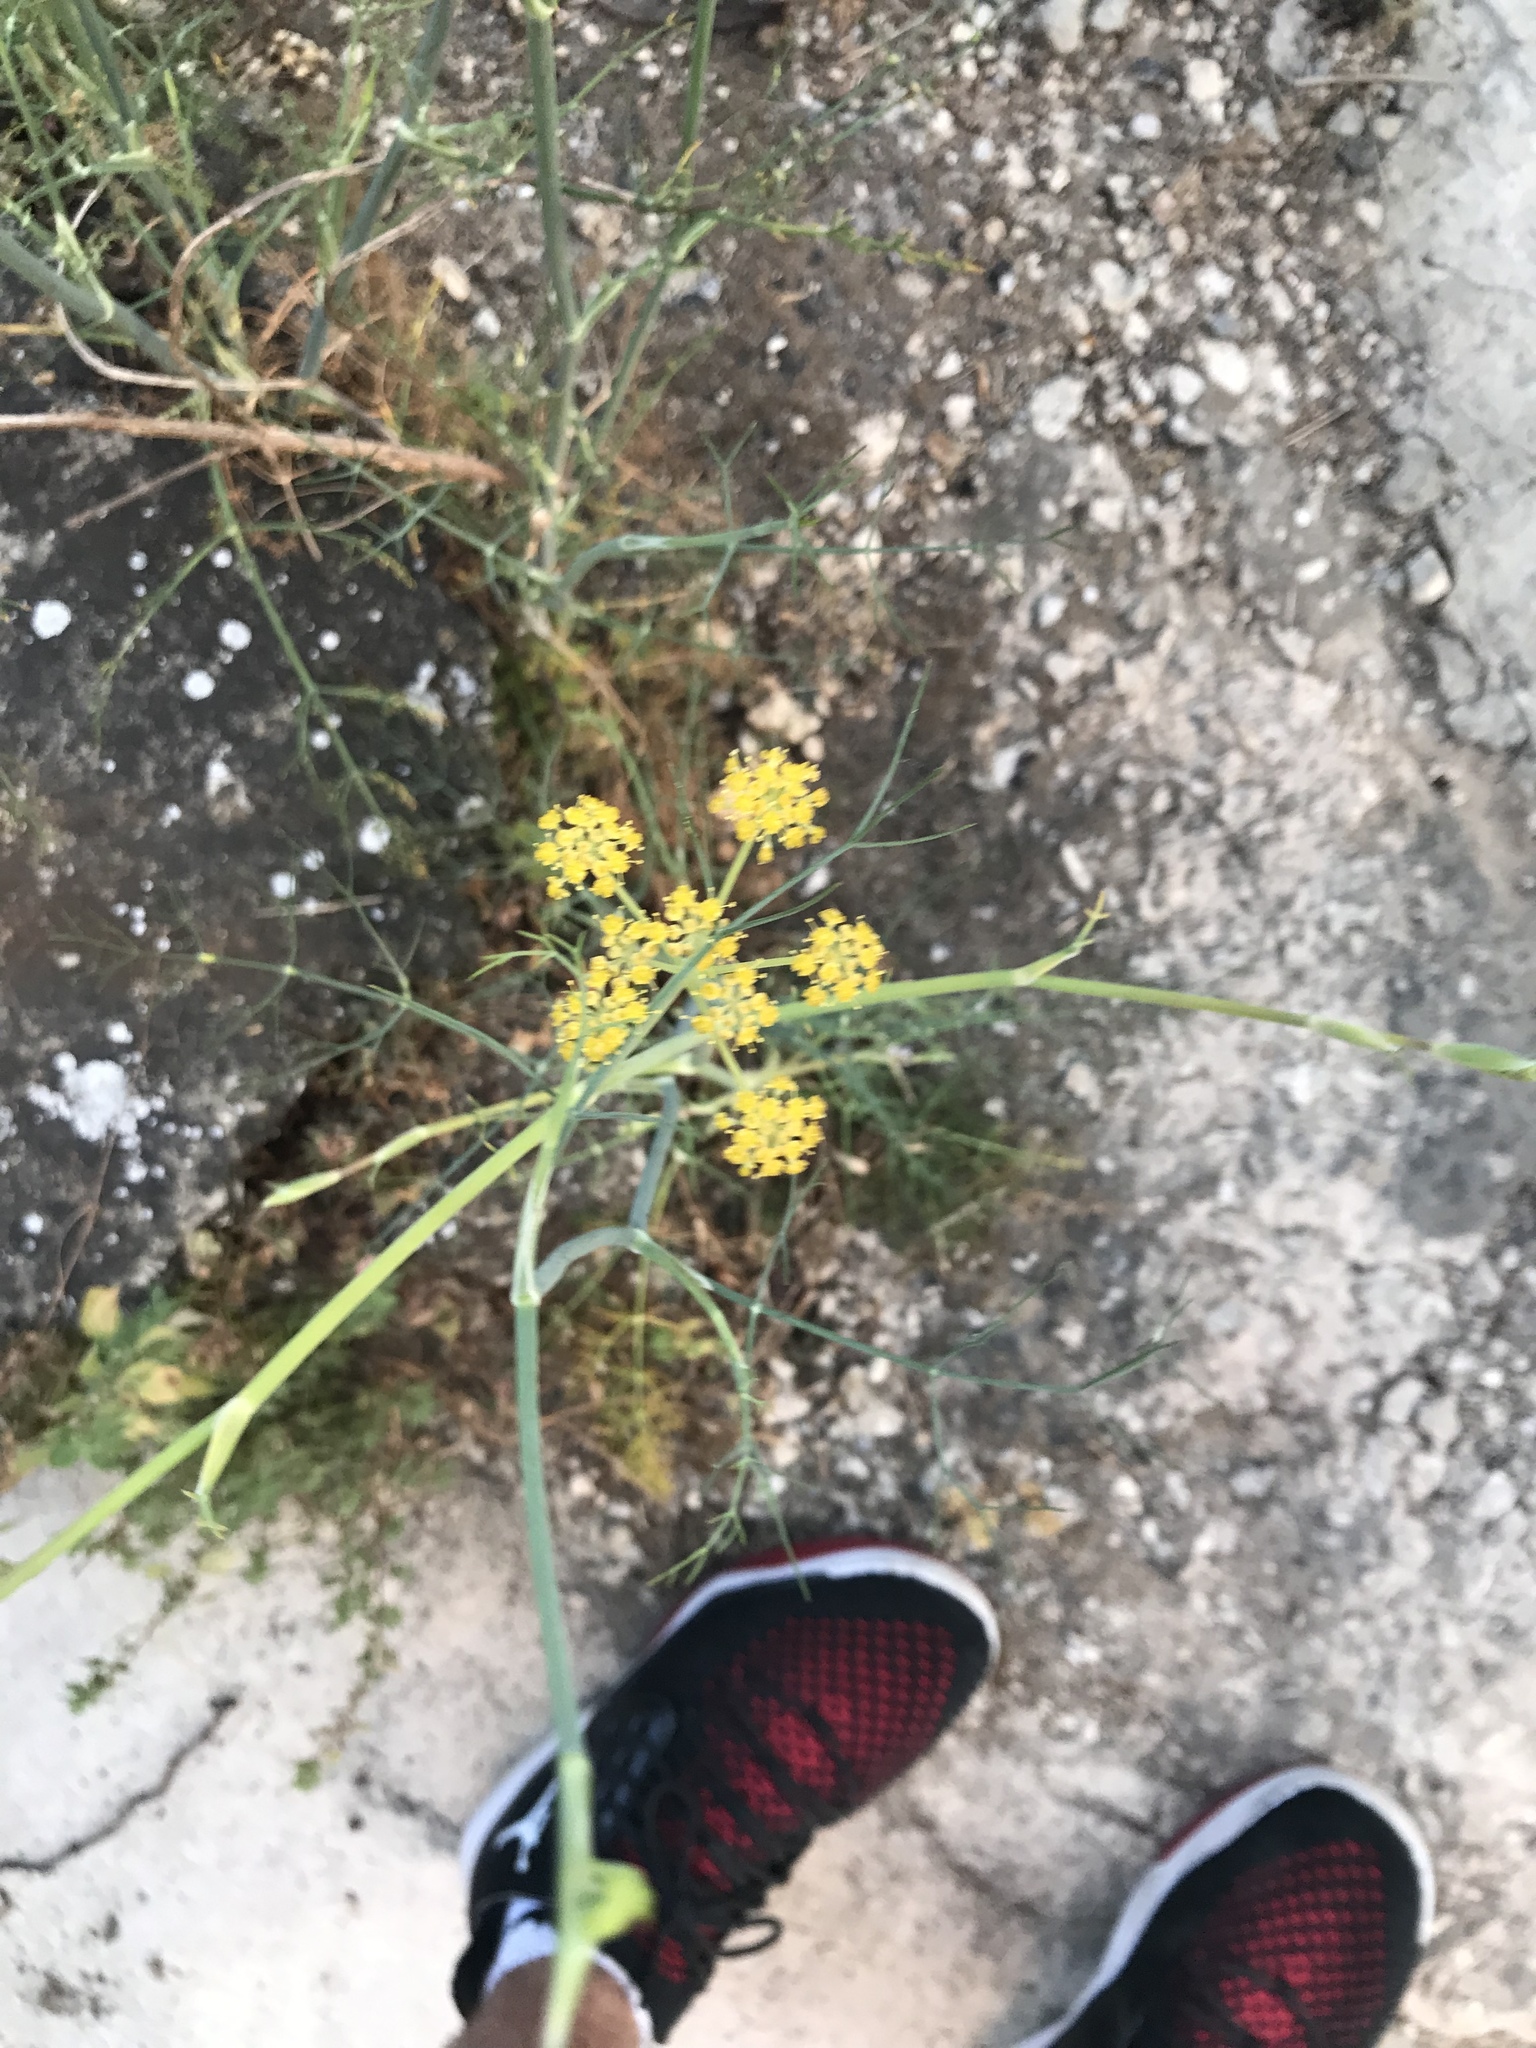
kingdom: Plantae
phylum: Tracheophyta
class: Magnoliopsida
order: Apiales
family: Apiaceae
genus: Foeniculum
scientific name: Foeniculum vulgare
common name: Fennel
